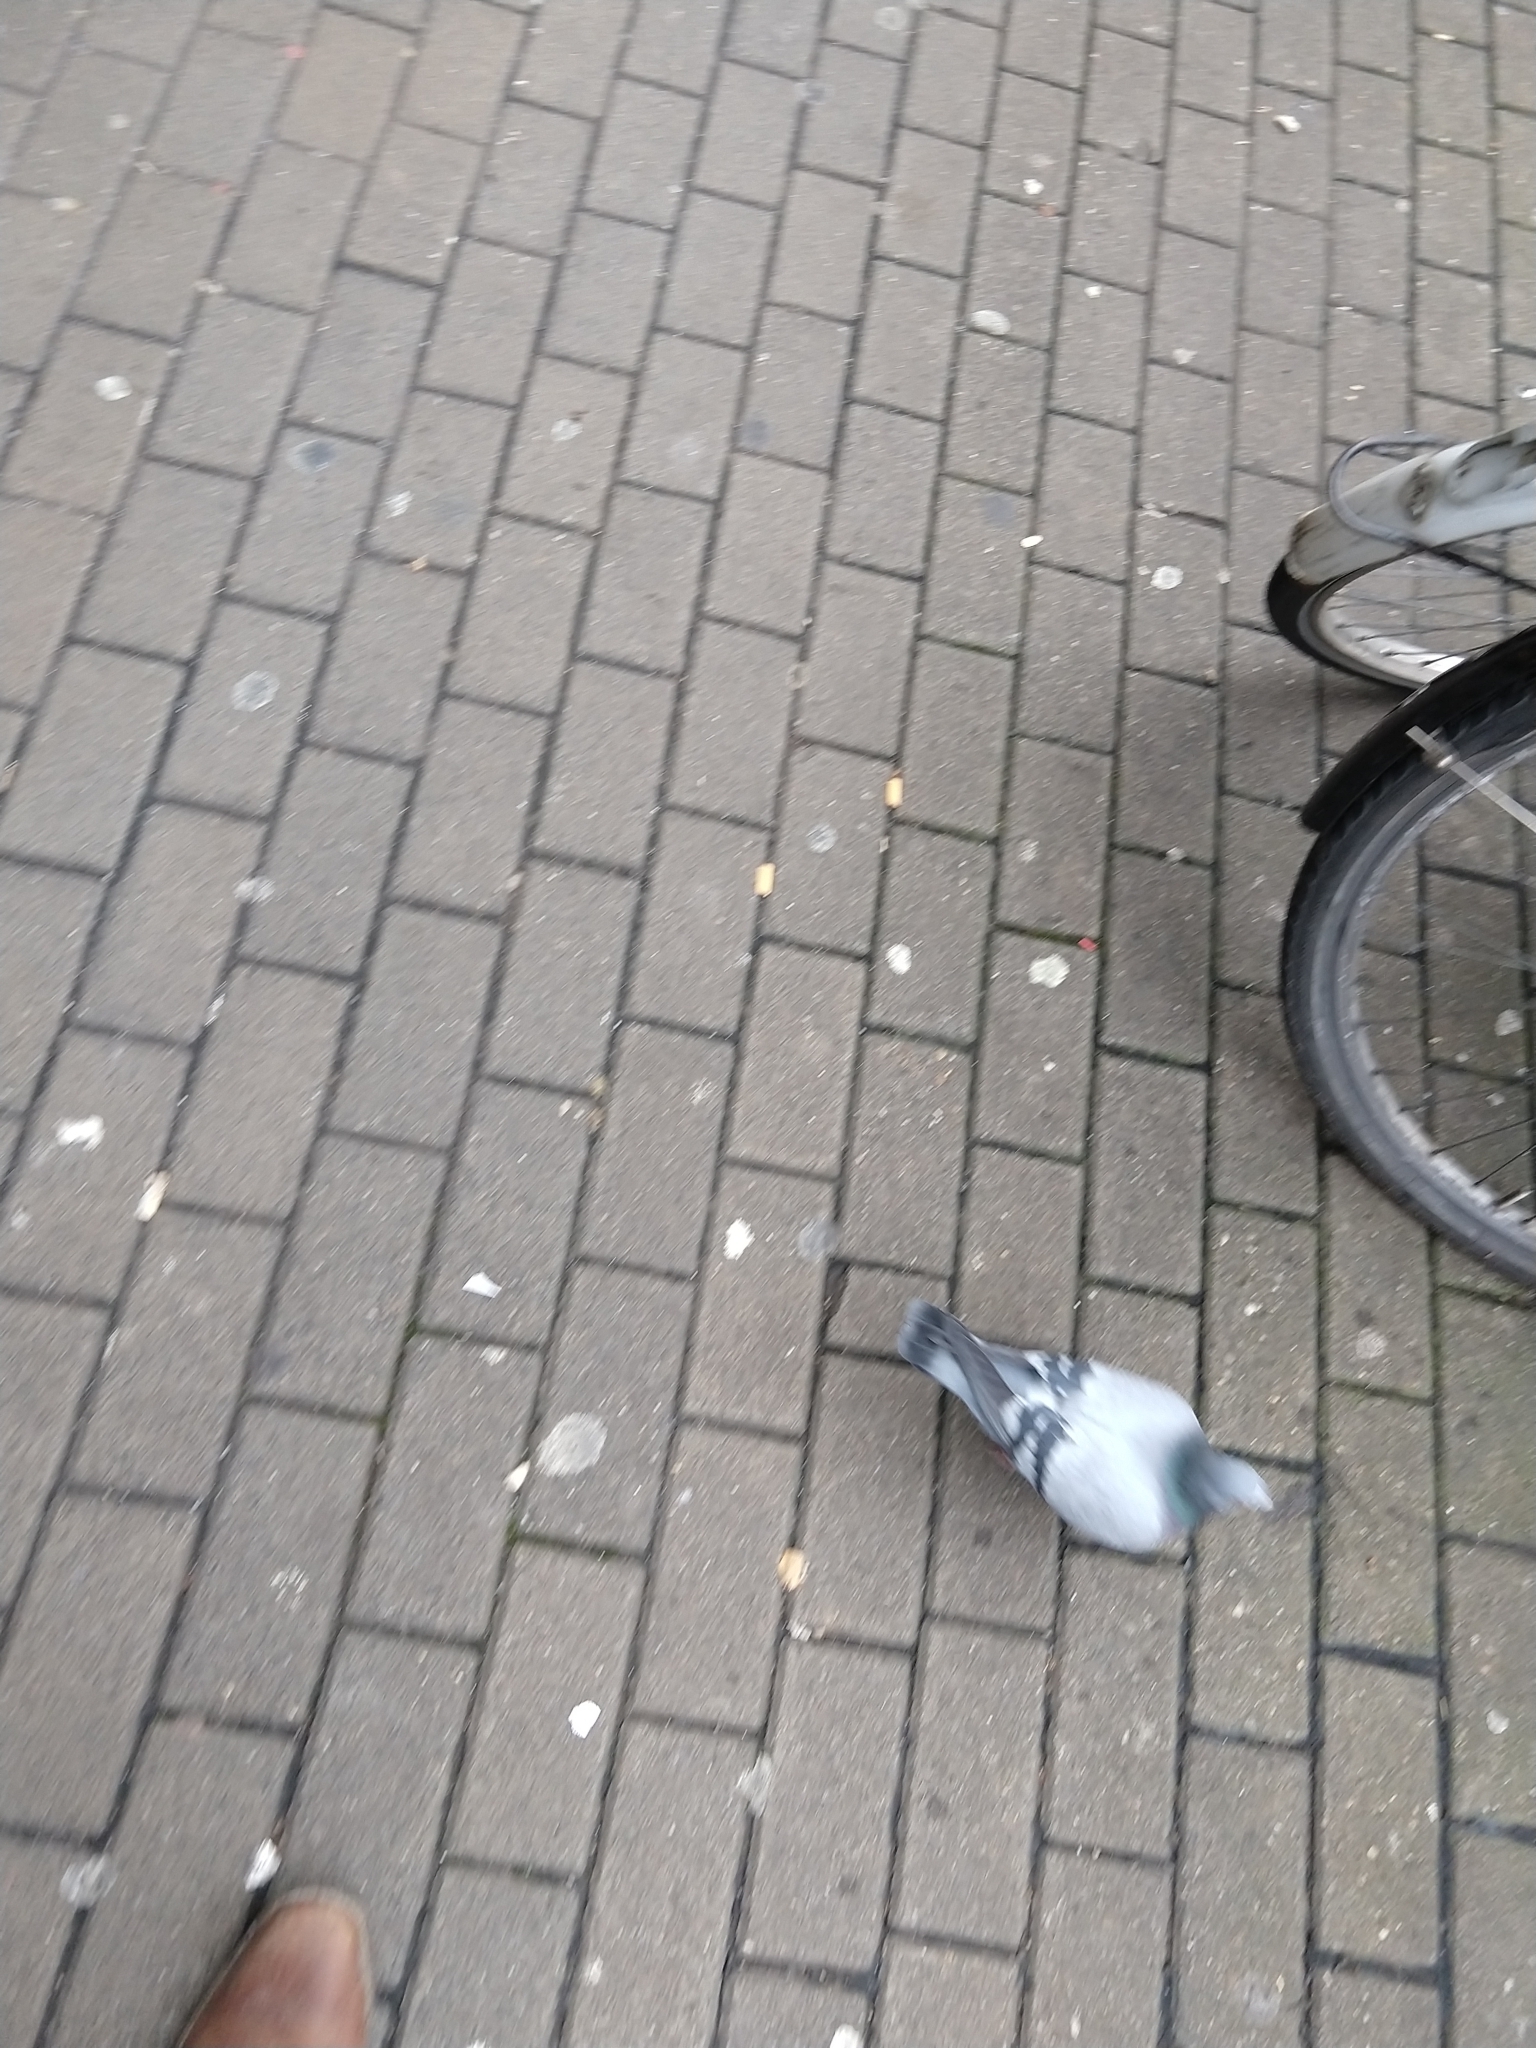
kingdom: Animalia
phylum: Chordata
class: Aves
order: Columbiformes
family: Columbidae
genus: Columba
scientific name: Columba livia
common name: Rock pigeon
